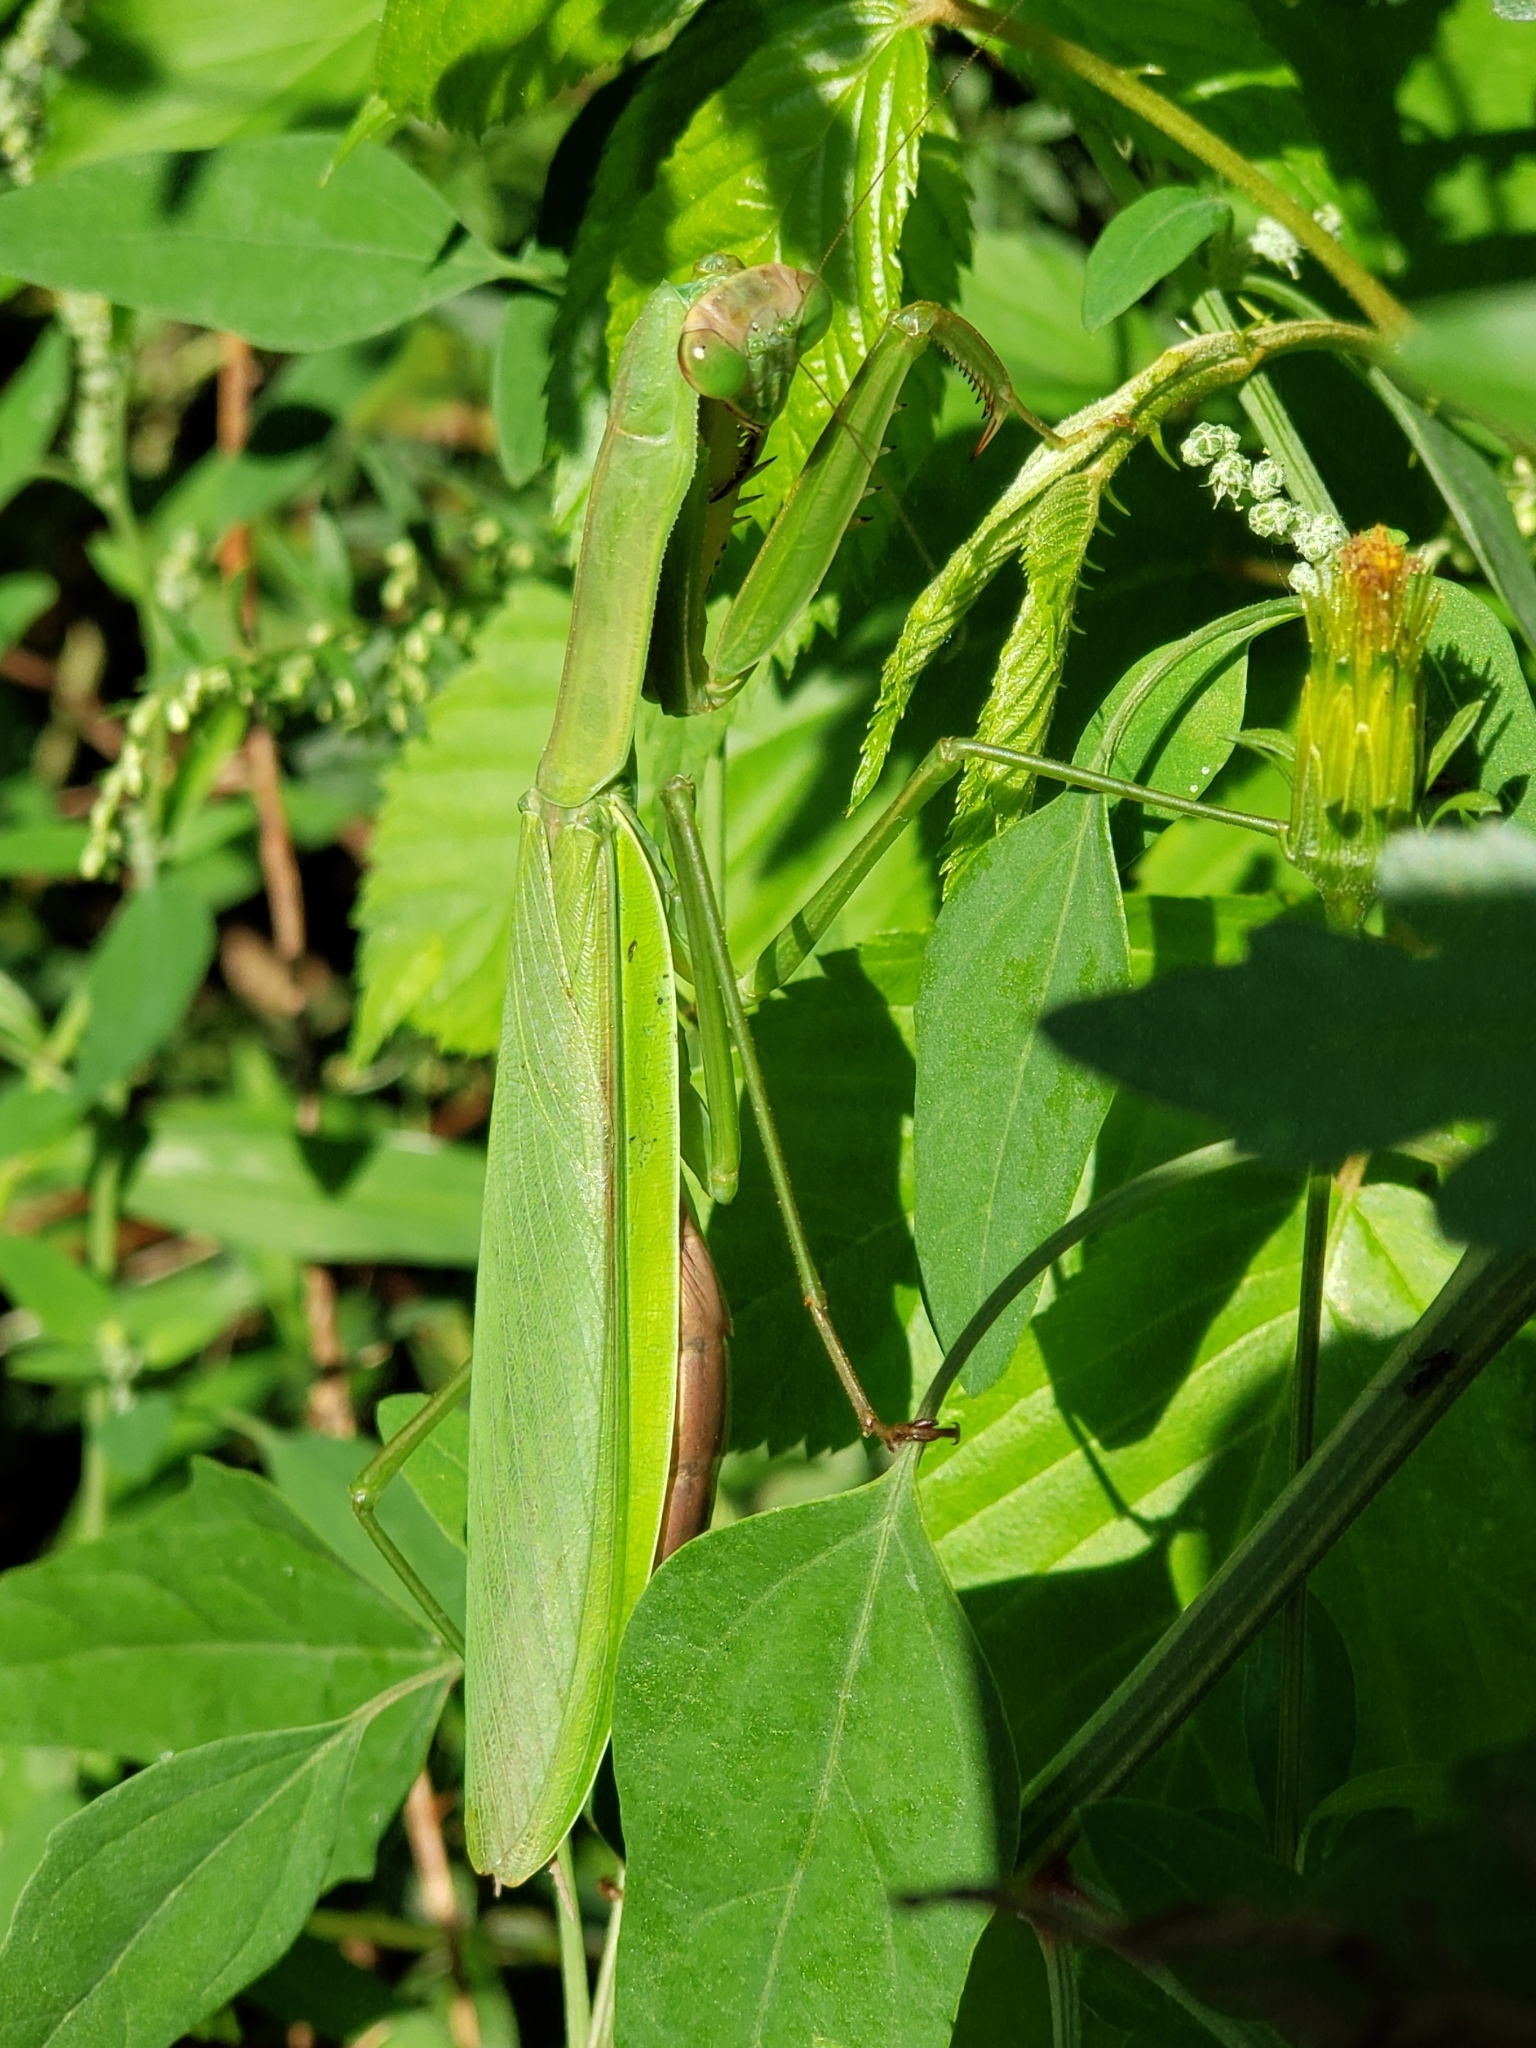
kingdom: Animalia
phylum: Arthropoda
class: Insecta
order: Mantodea
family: Mantidae
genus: Tenodera
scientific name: Tenodera sinensis
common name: Chinese mantis
